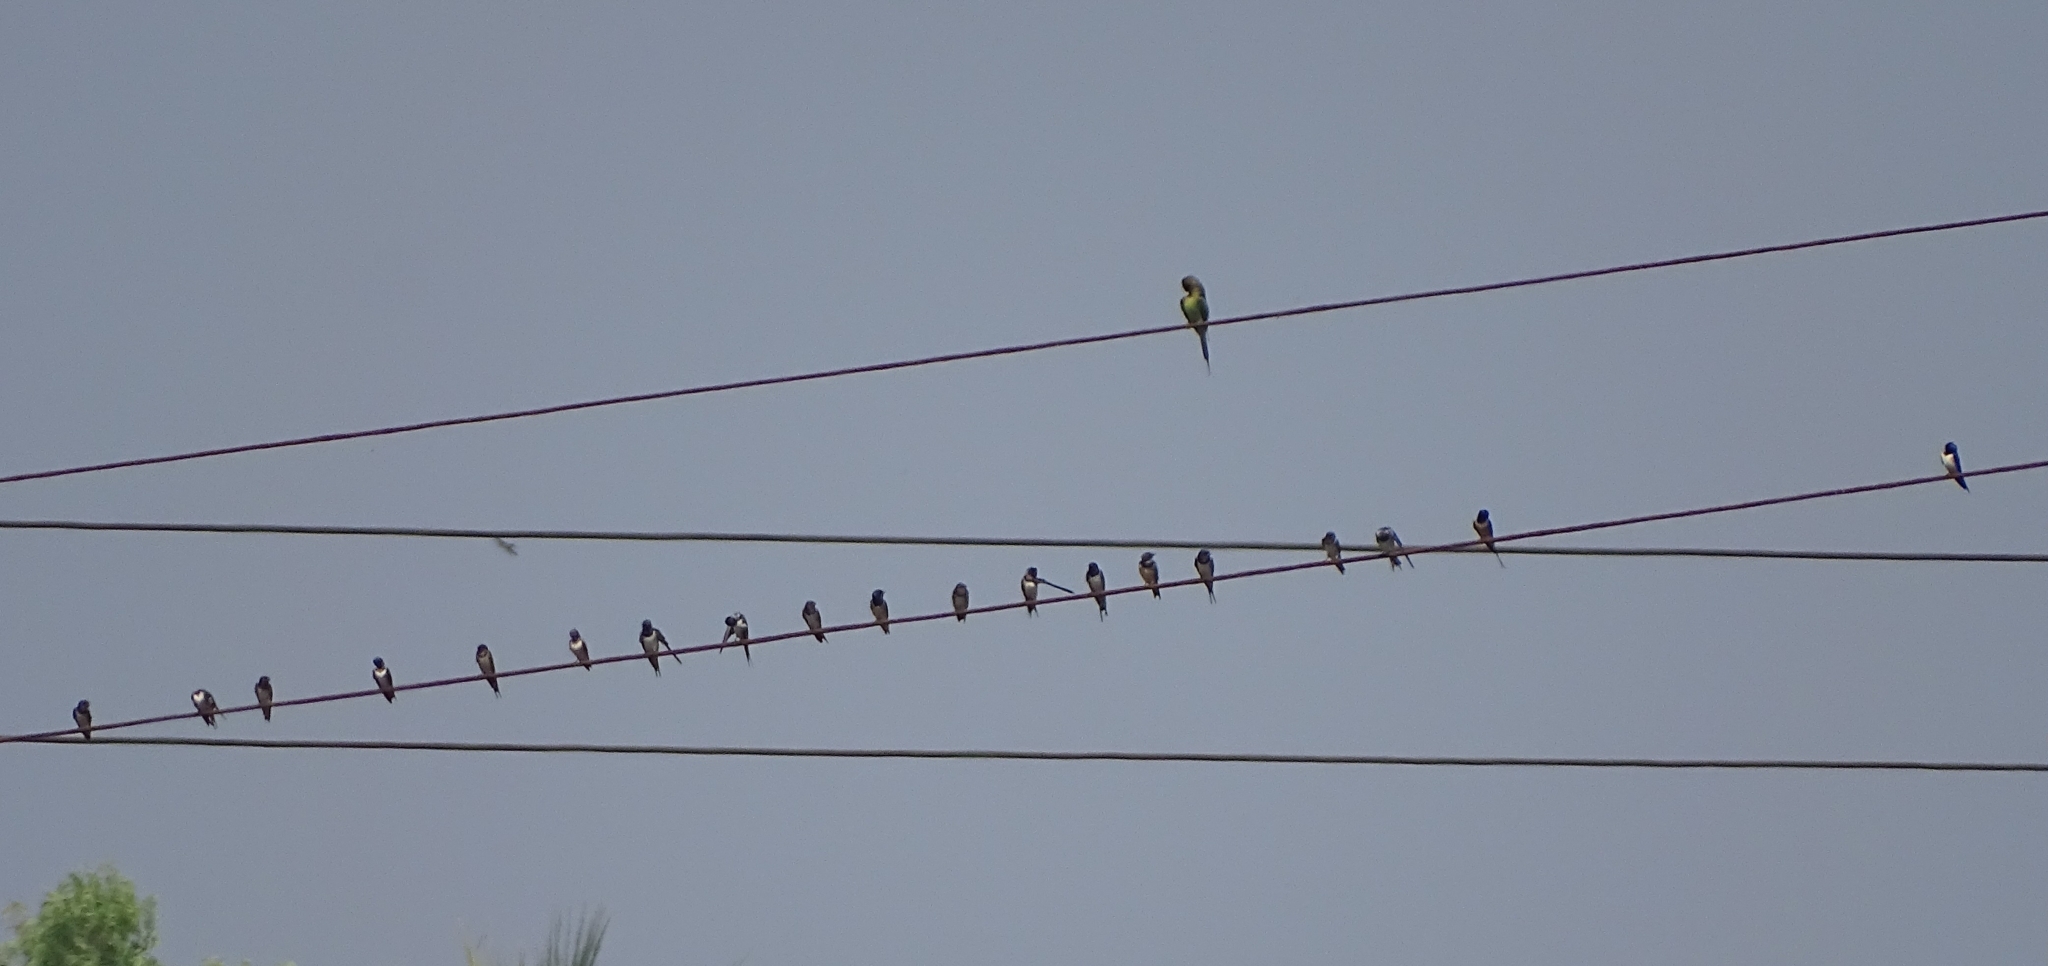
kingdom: Animalia
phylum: Chordata
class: Aves
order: Passeriformes
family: Hirundinidae
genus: Hirundo
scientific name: Hirundo rustica
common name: Barn swallow
